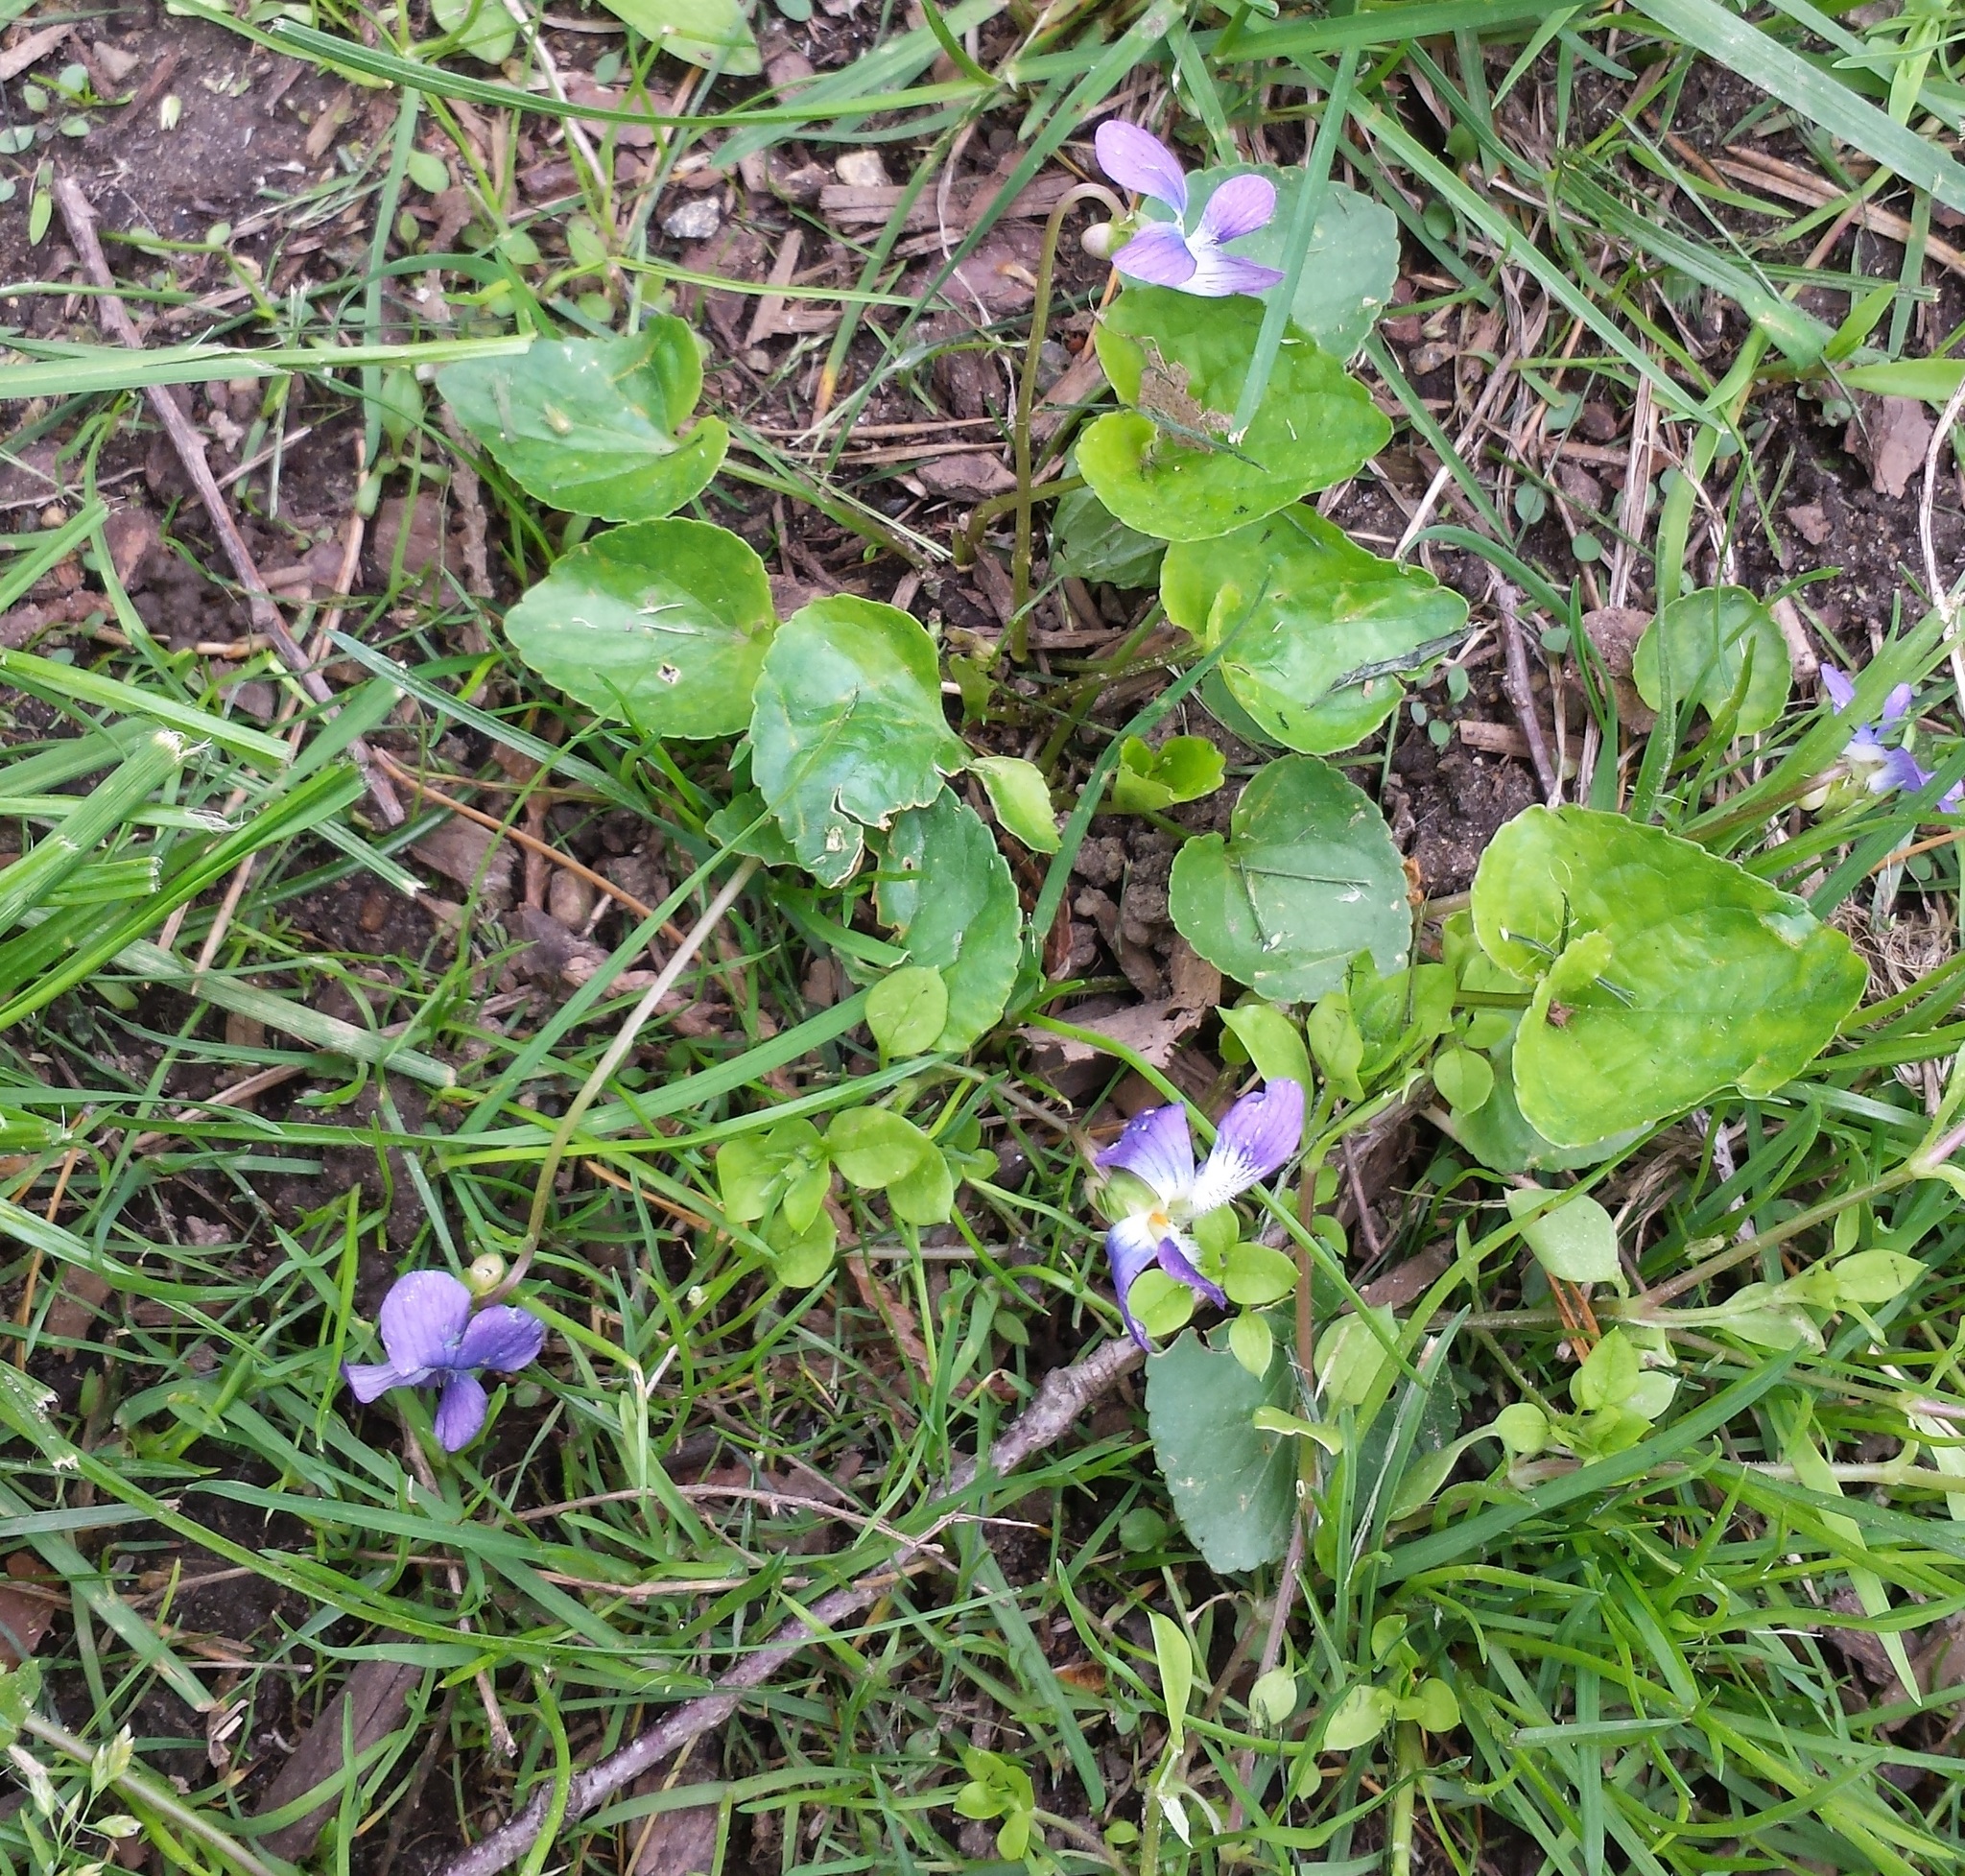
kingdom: Plantae
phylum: Tracheophyta
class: Magnoliopsida
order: Malpighiales
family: Violaceae
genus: Viola
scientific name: Viola sororia
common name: Dooryard violet
